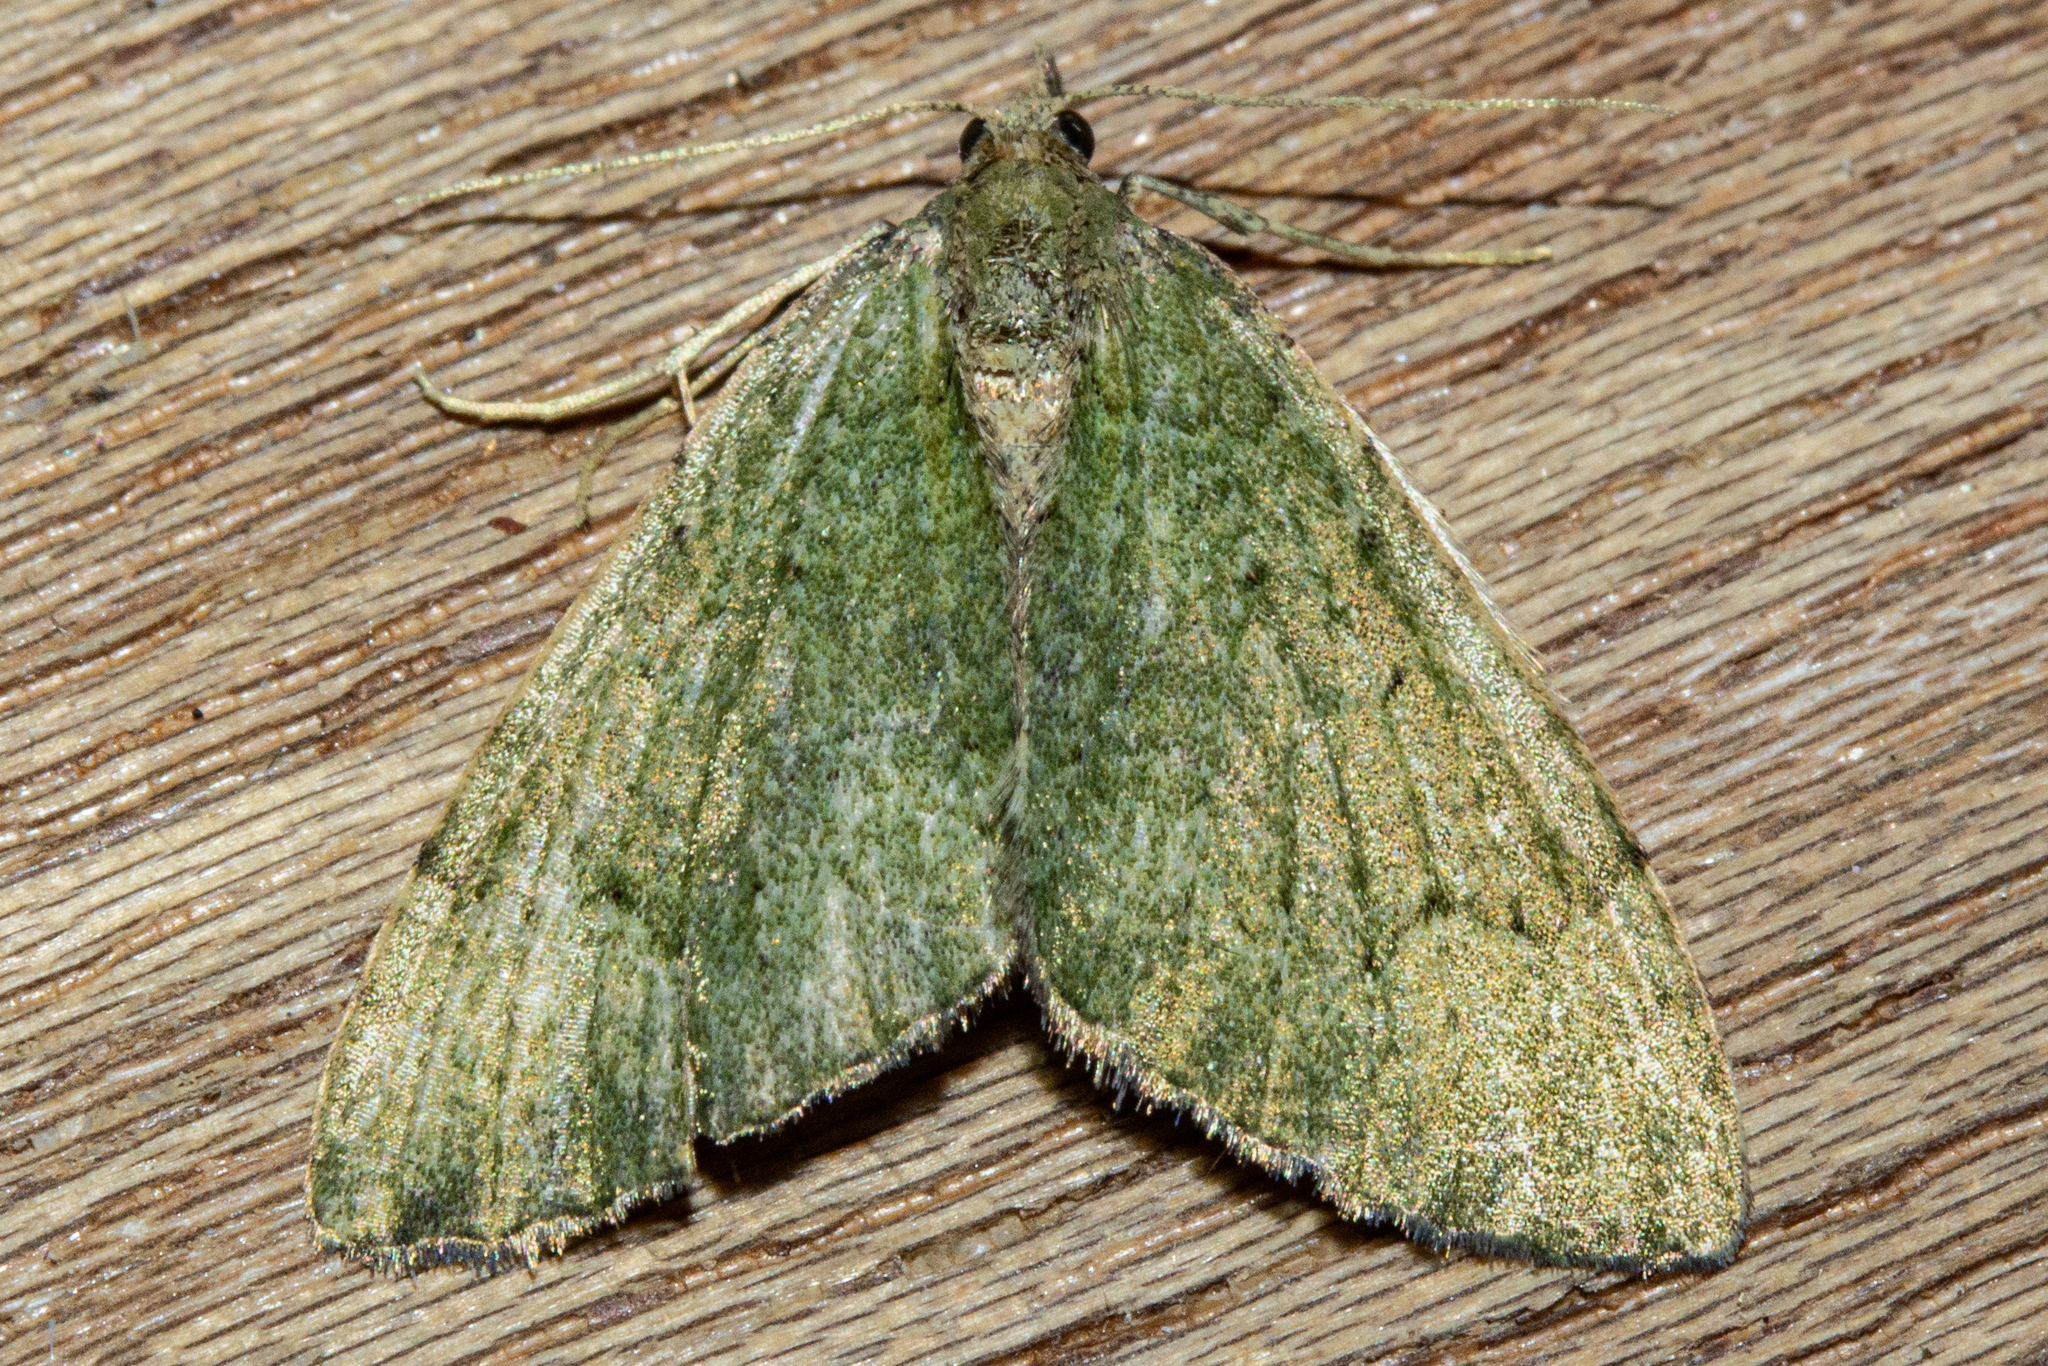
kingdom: Animalia
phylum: Arthropoda
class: Insecta
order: Lepidoptera
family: Geometridae
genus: Epyaxa
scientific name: Epyaxa rosearia
